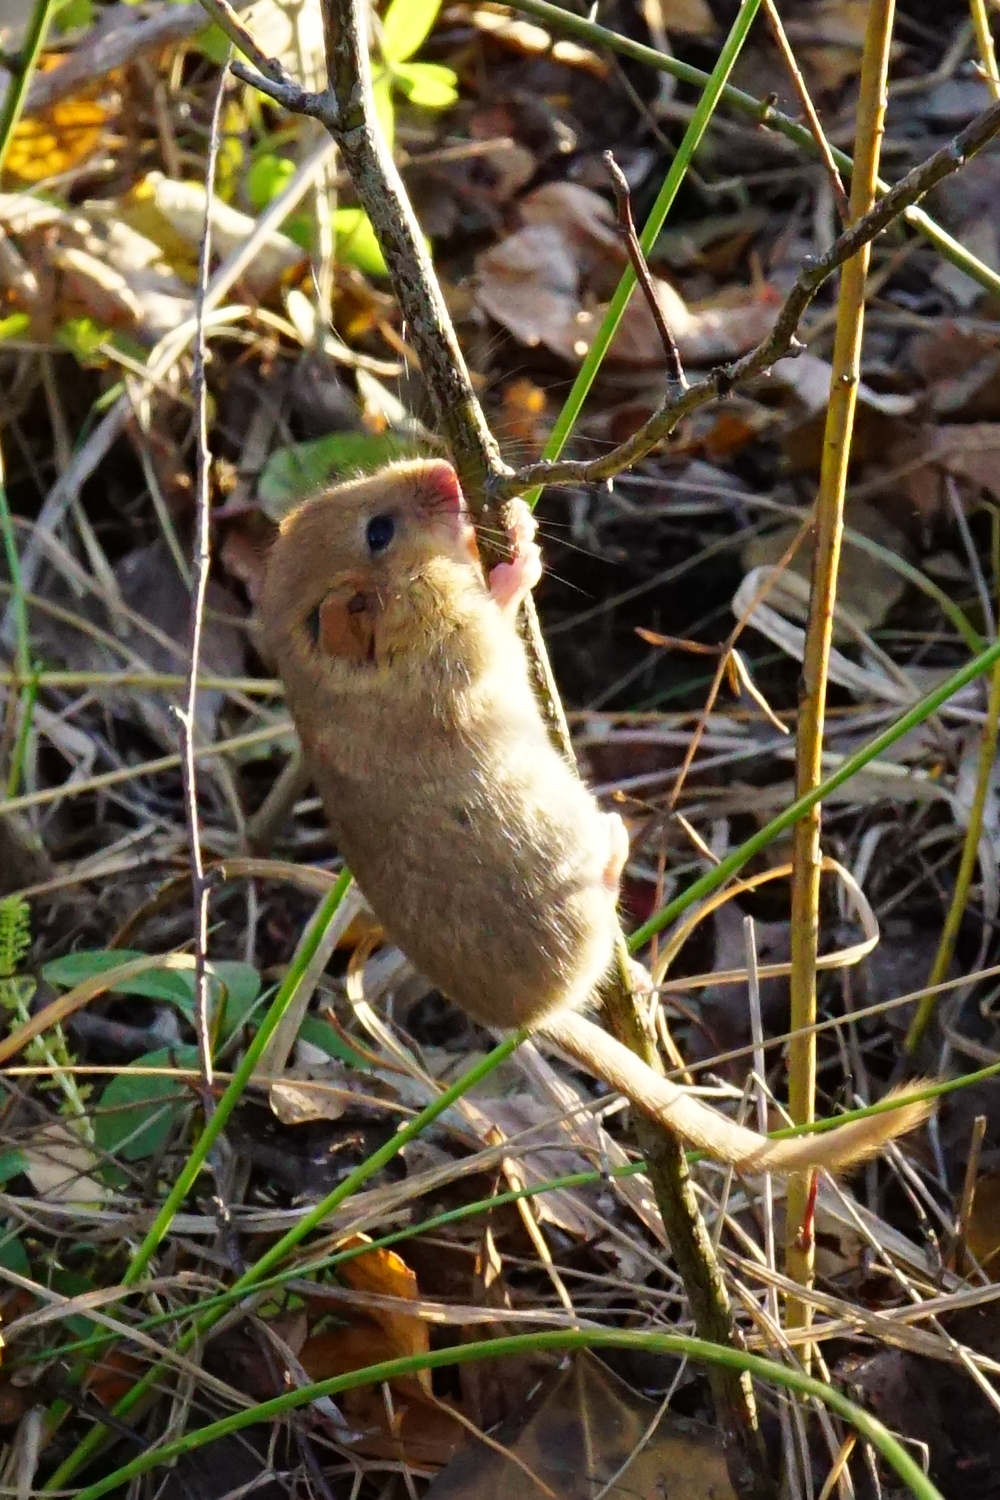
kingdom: Animalia
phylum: Chordata
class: Mammalia
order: Rodentia
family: Gliridae
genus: Muscardinus
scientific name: Muscardinus avellanarius
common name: Hazel dormouse
